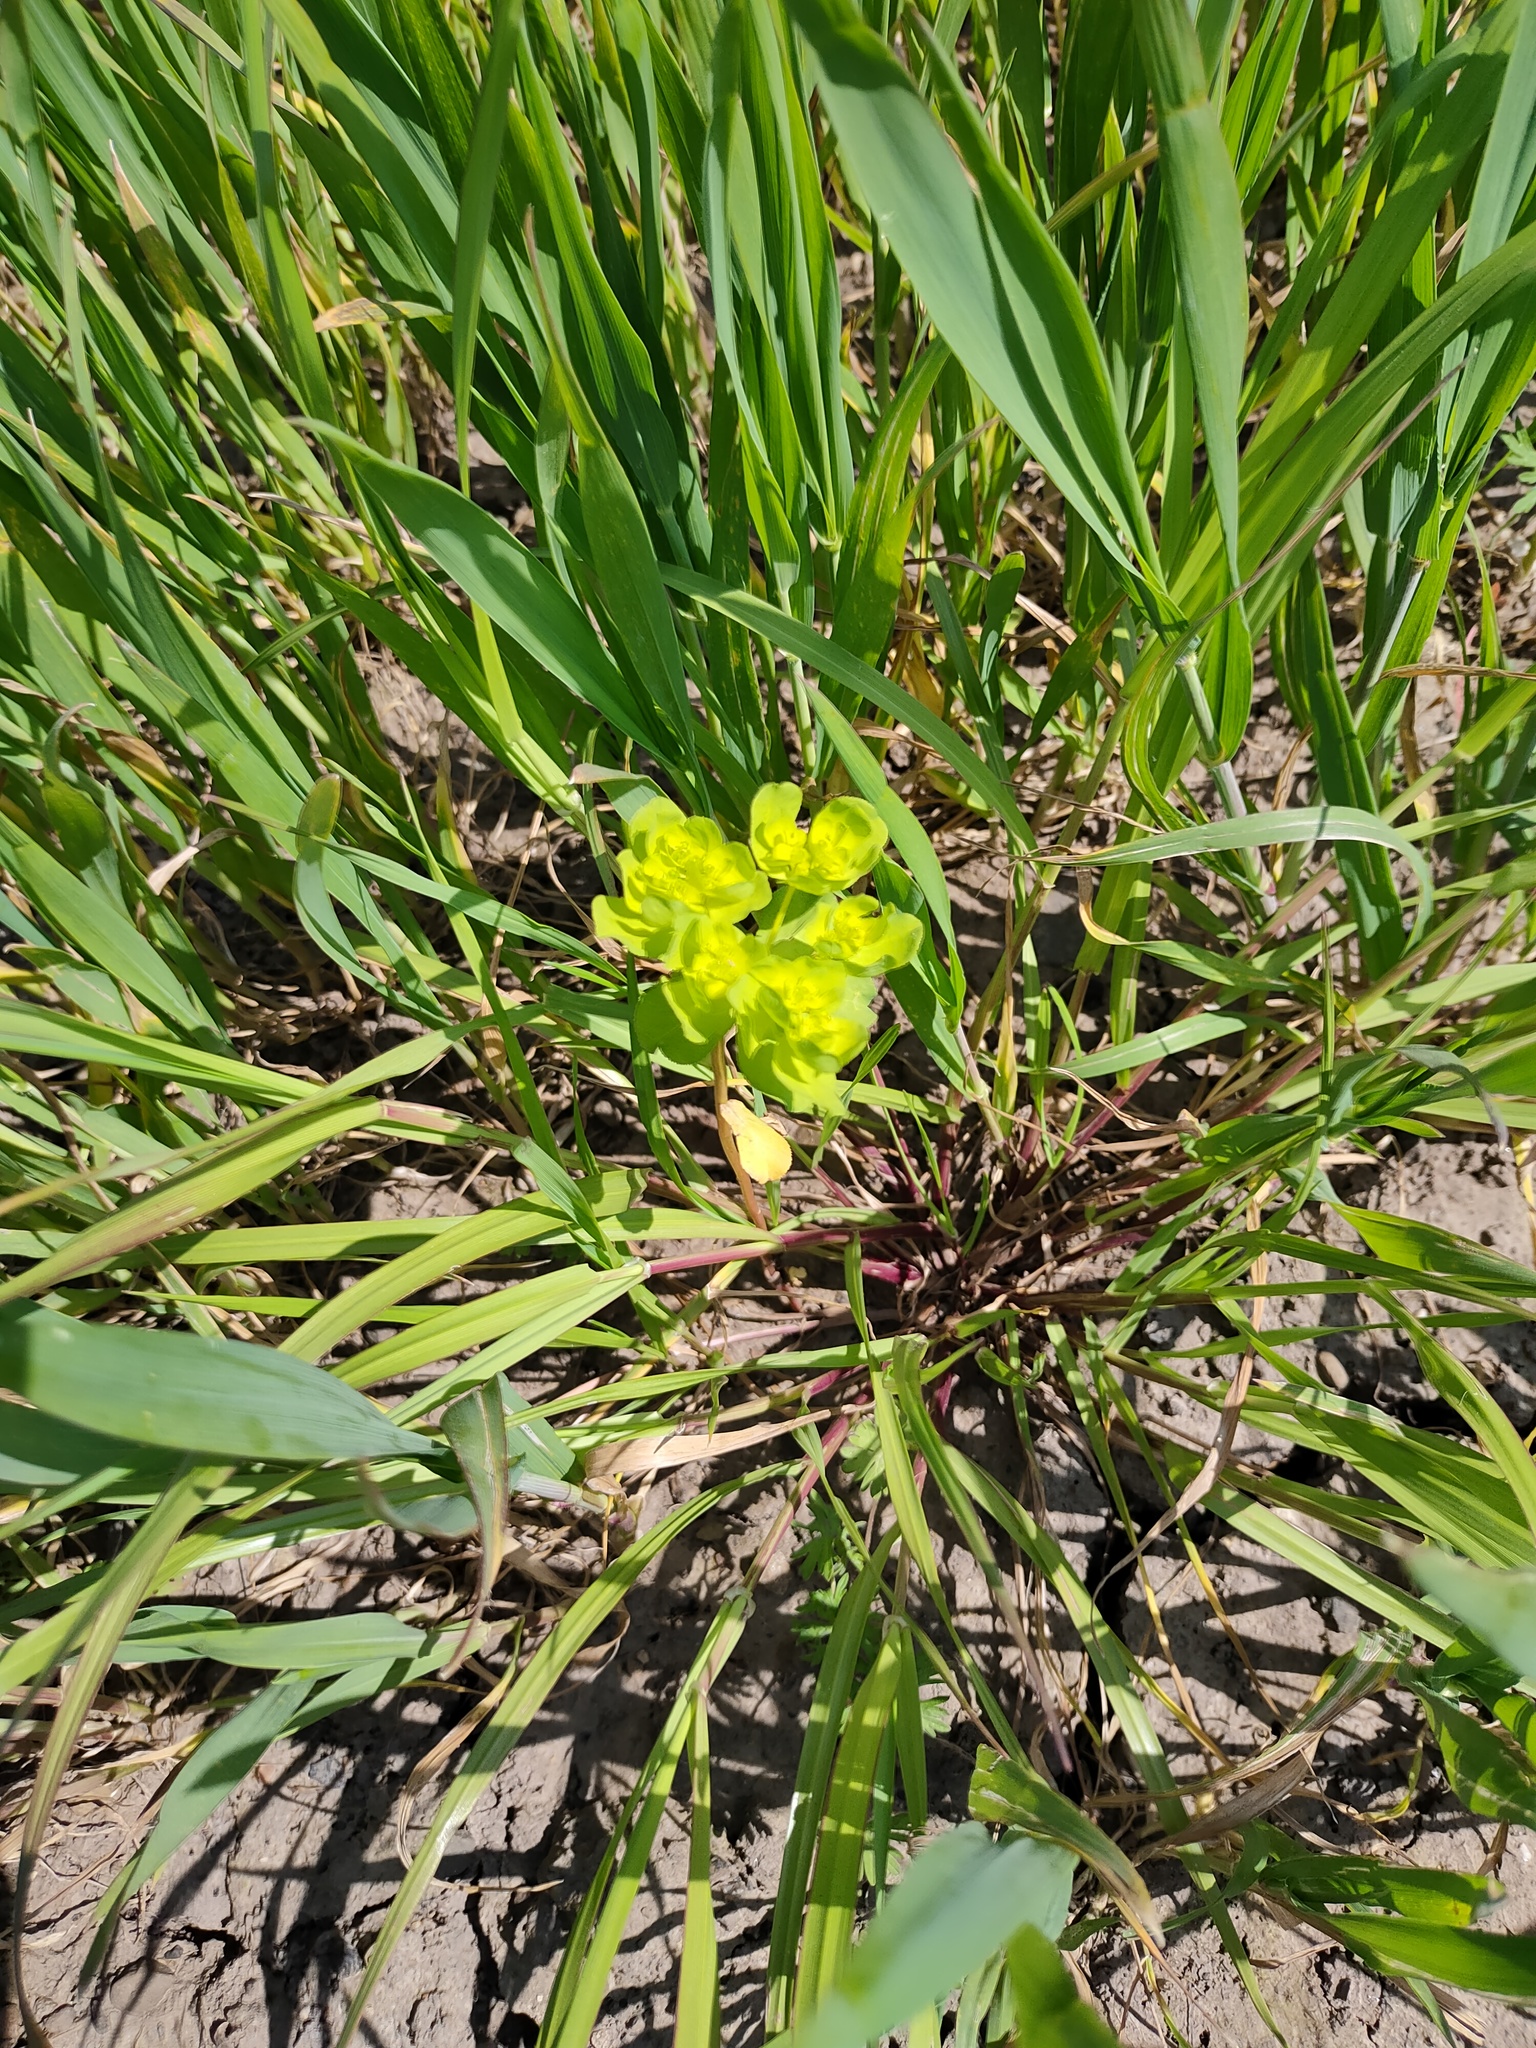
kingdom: Plantae
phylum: Tracheophyta
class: Magnoliopsida
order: Malpighiales
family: Euphorbiaceae
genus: Euphorbia
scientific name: Euphorbia helioscopia
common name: Sun spurge
